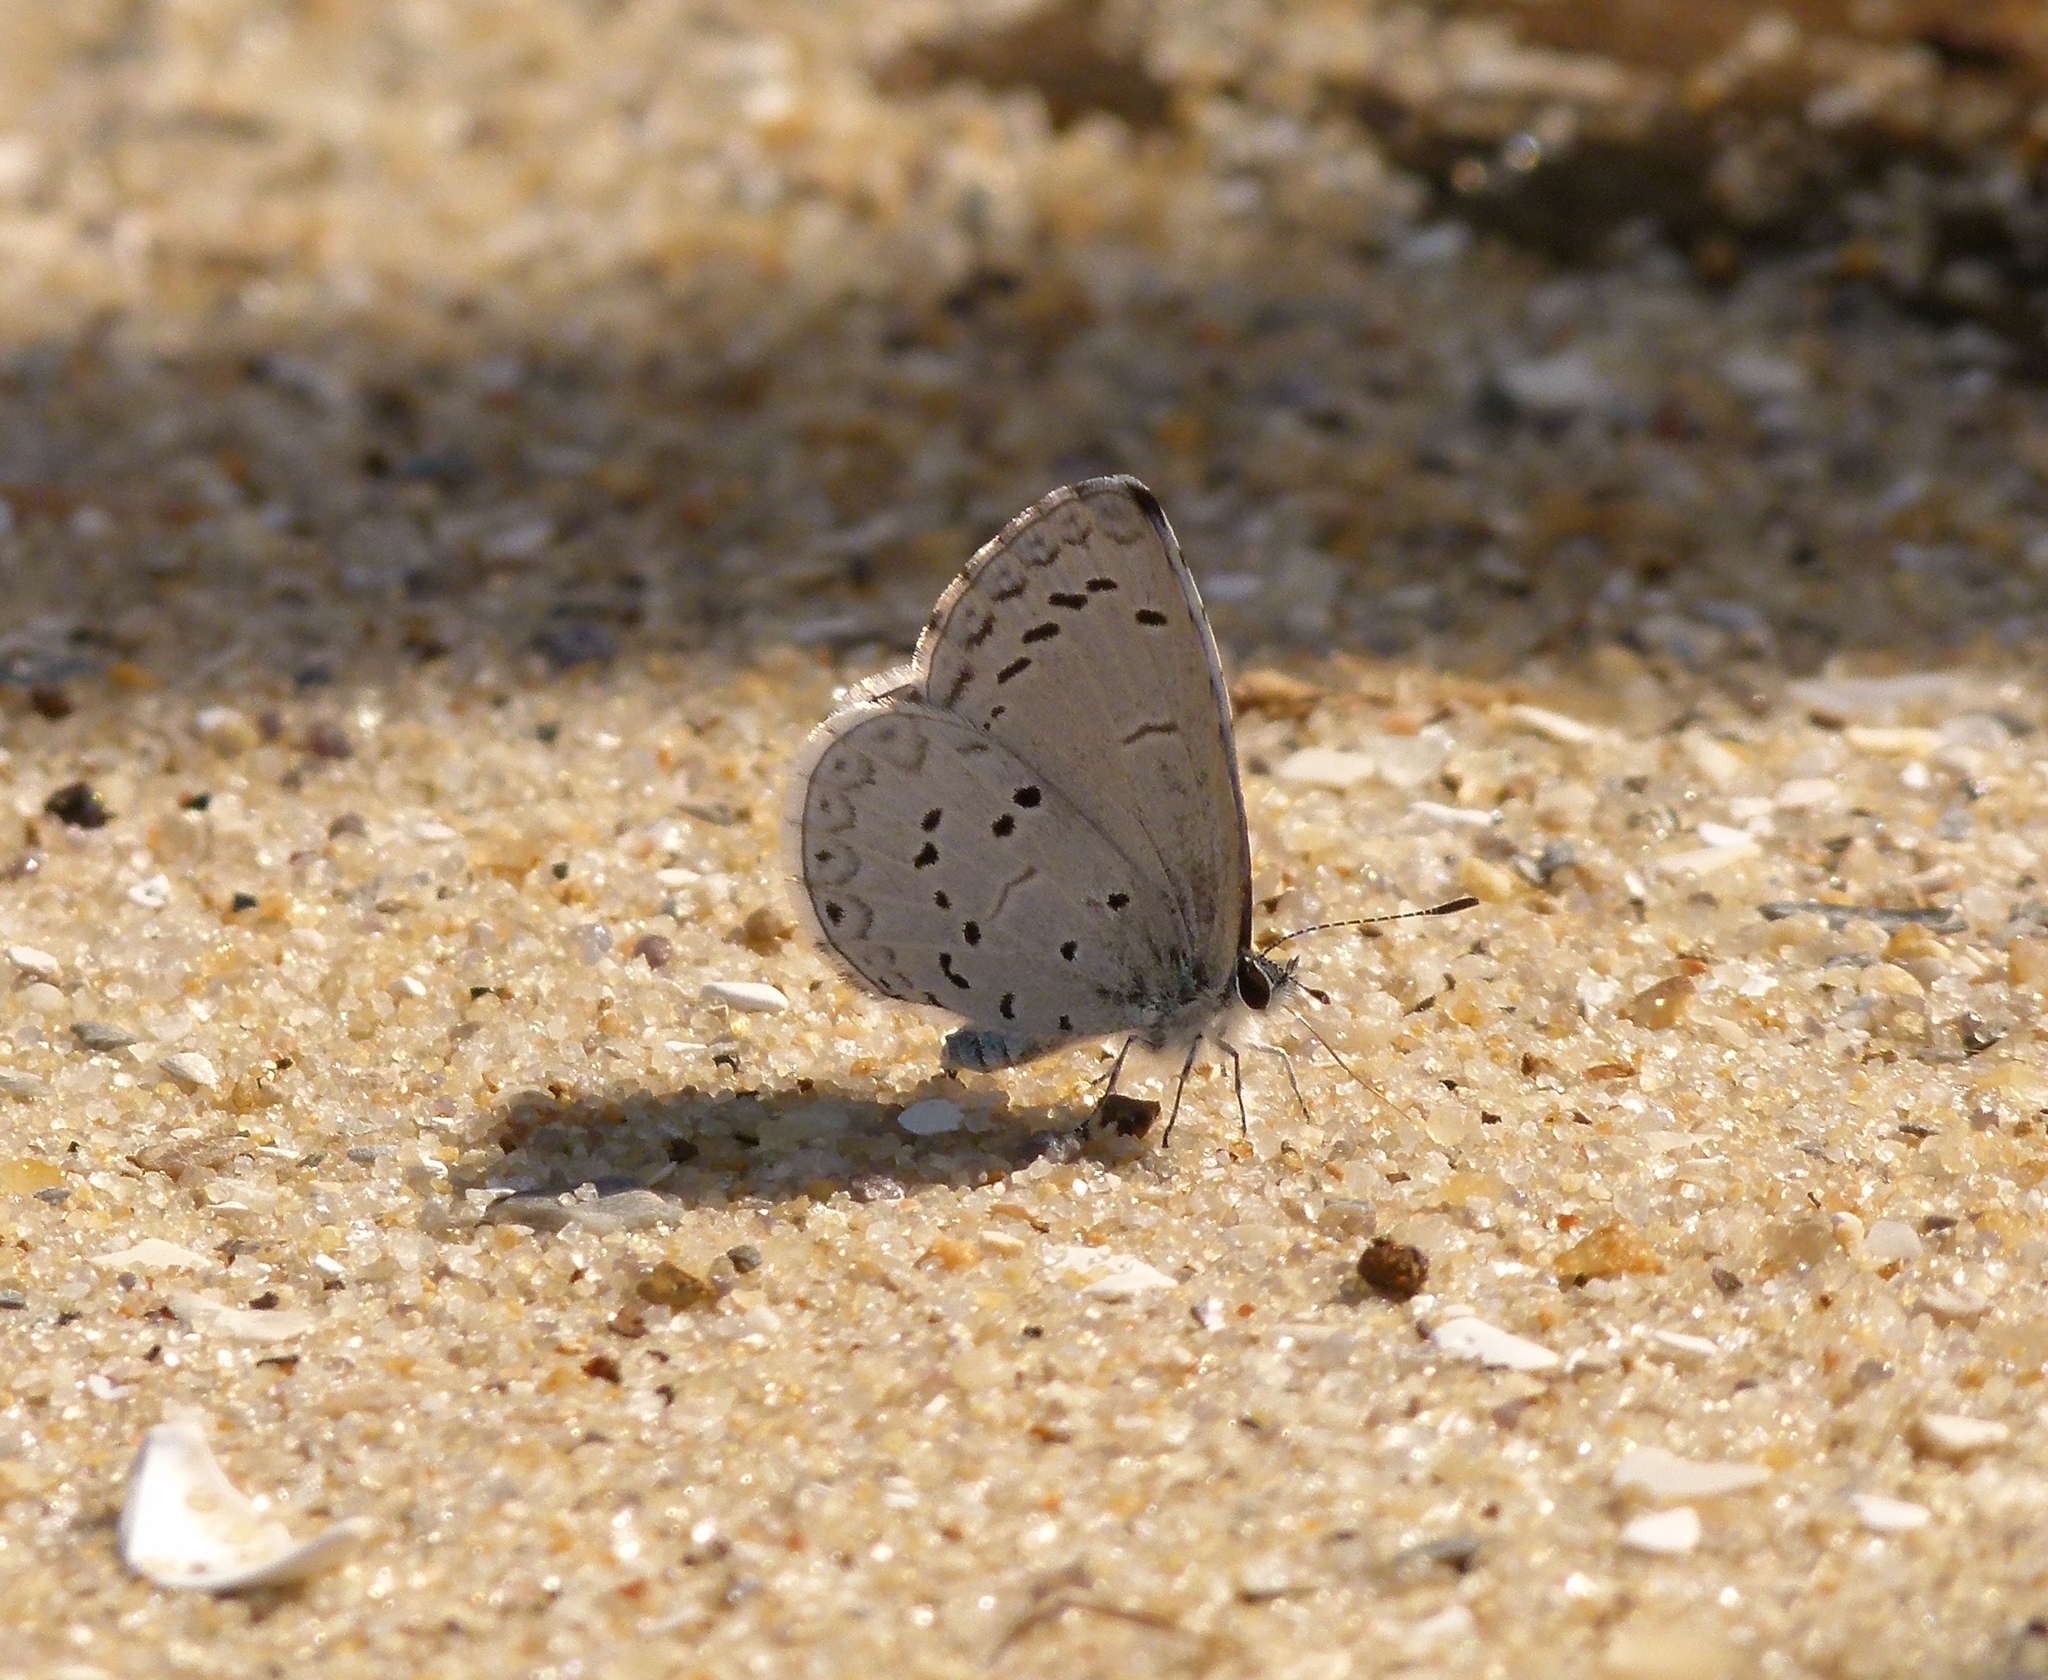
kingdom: Animalia
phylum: Arthropoda
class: Insecta
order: Lepidoptera
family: Lycaenidae
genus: Celastrina
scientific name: Celastrina
